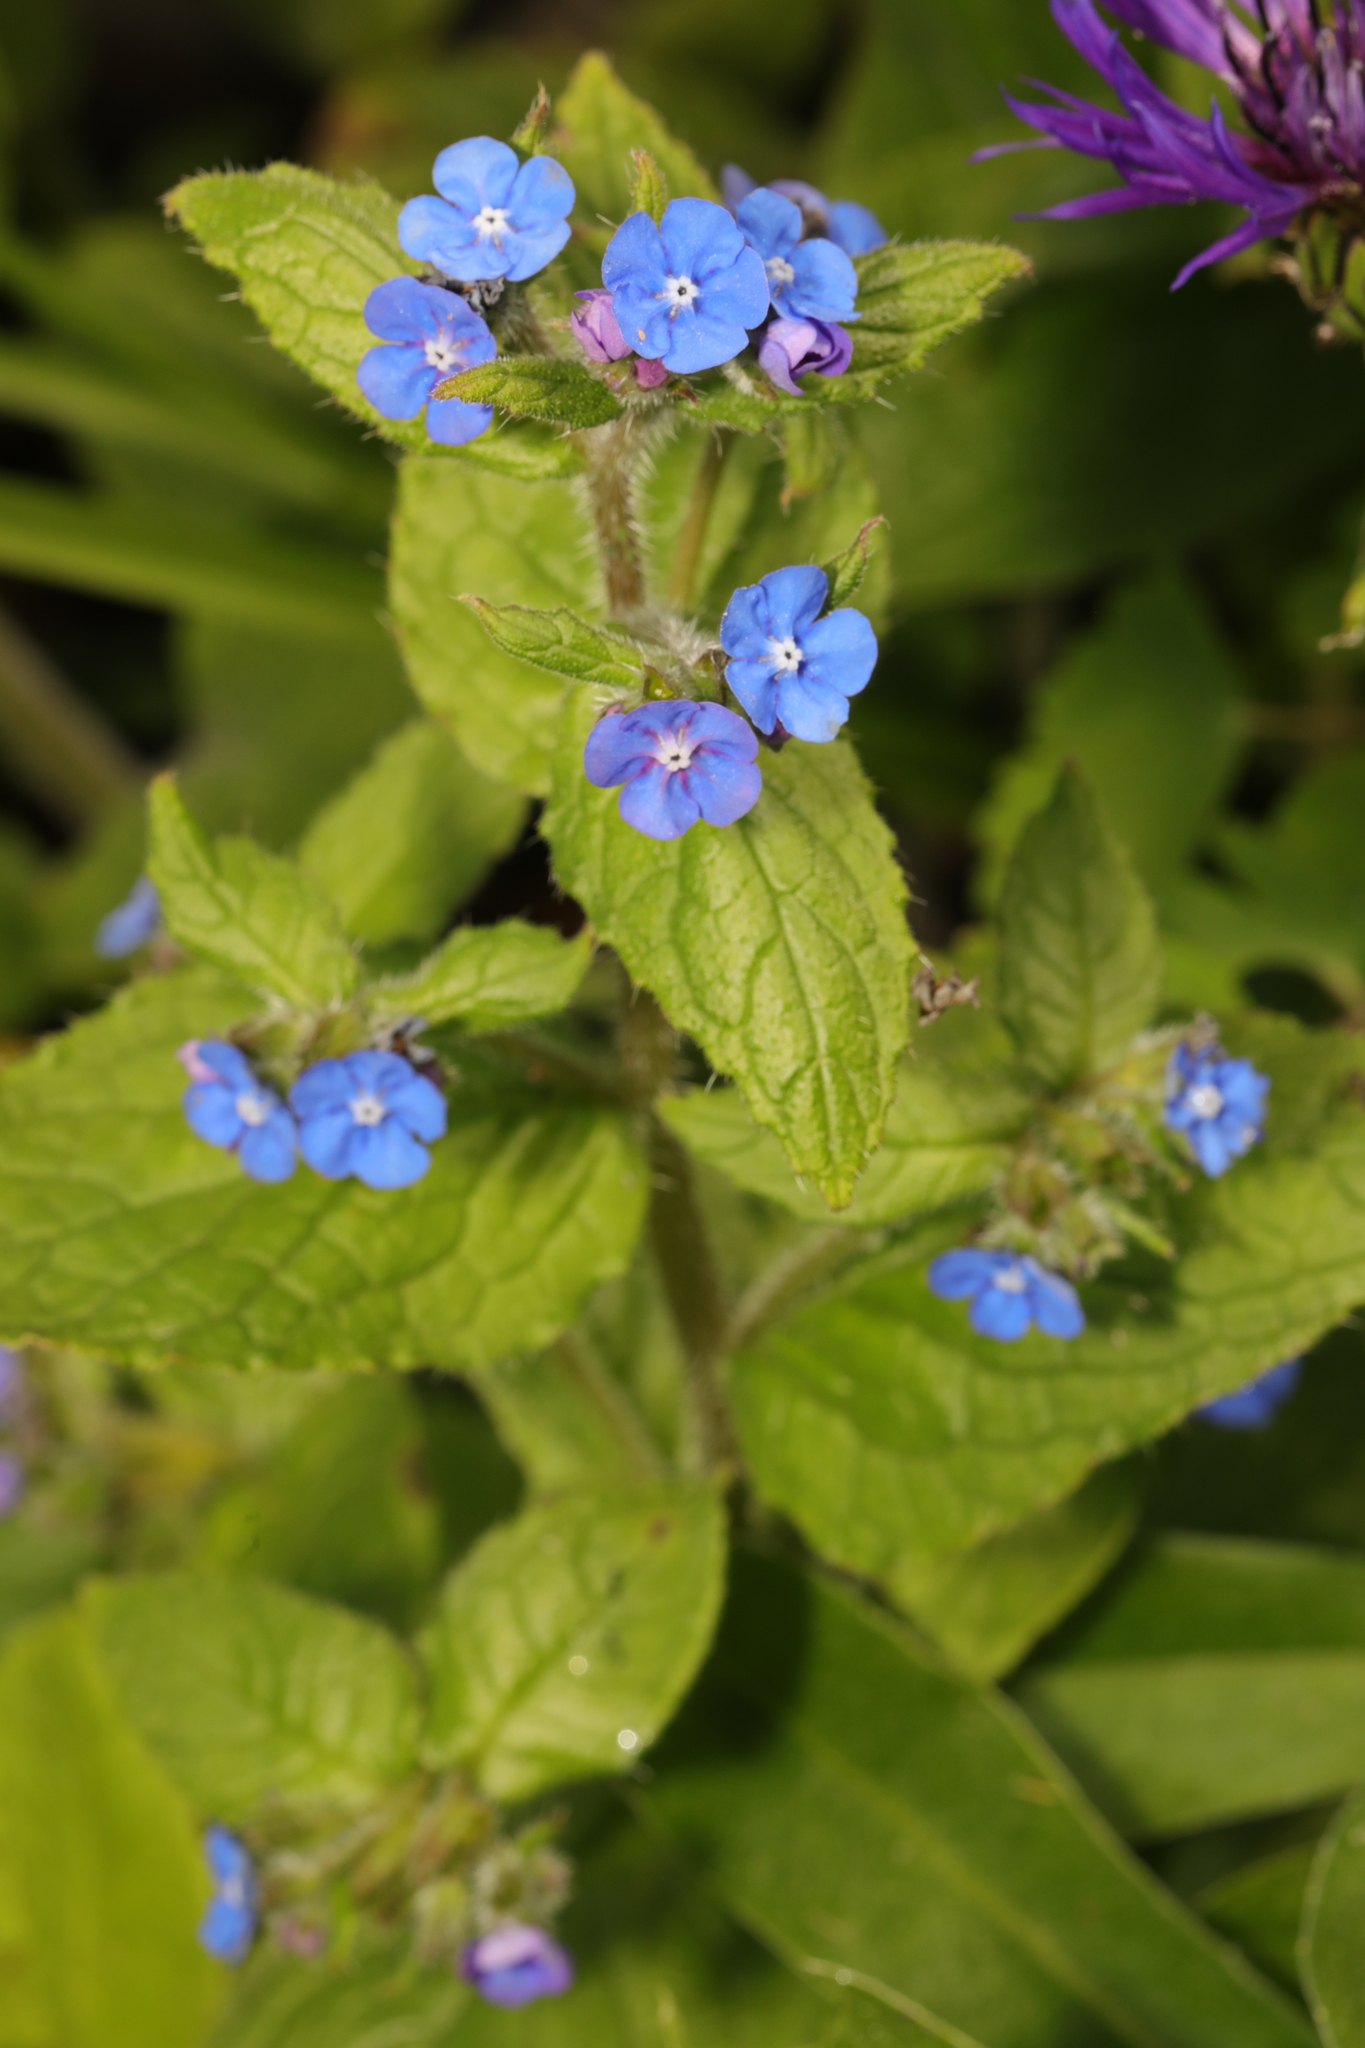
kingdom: Plantae
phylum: Tracheophyta
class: Magnoliopsida
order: Boraginales
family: Boraginaceae
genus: Pentaglottis
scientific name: Pentaglottis sempervirens
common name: Green alkanet
